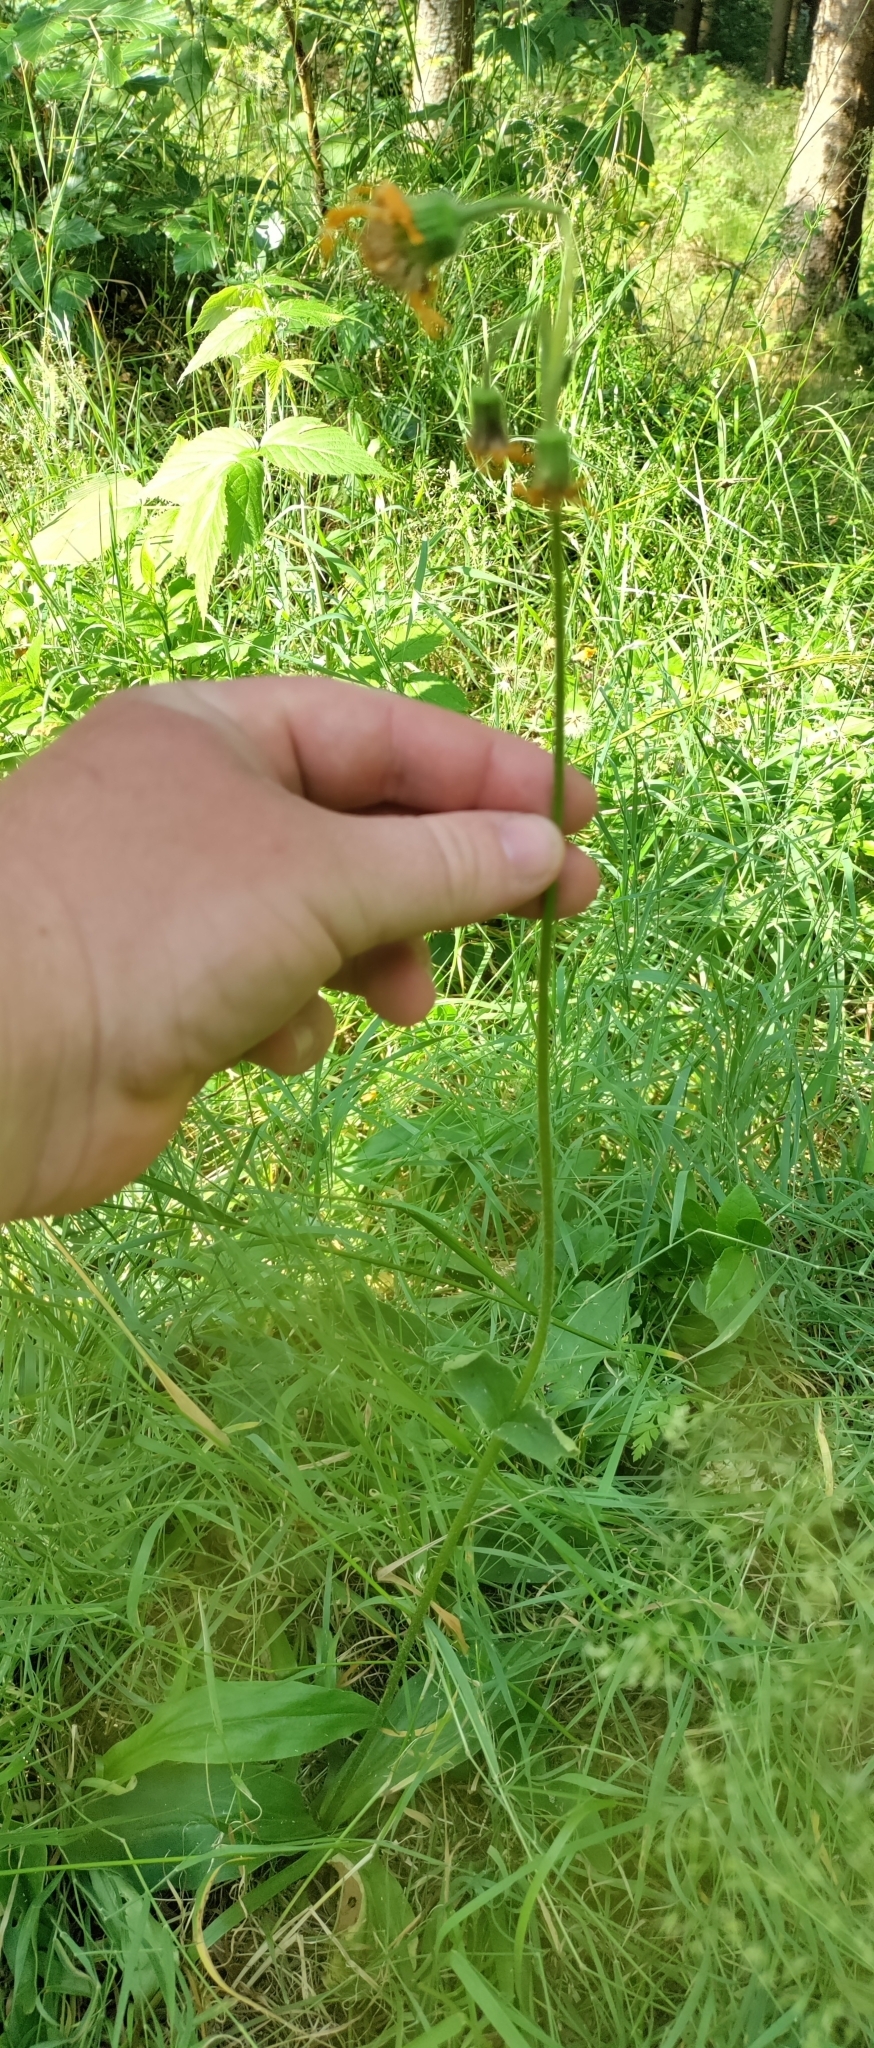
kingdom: Plantae
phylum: Tracheophyta
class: Magnoliopsida
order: Asterales
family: Asteraceae
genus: Arnica
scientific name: Arnica montana
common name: Leopard's bane
